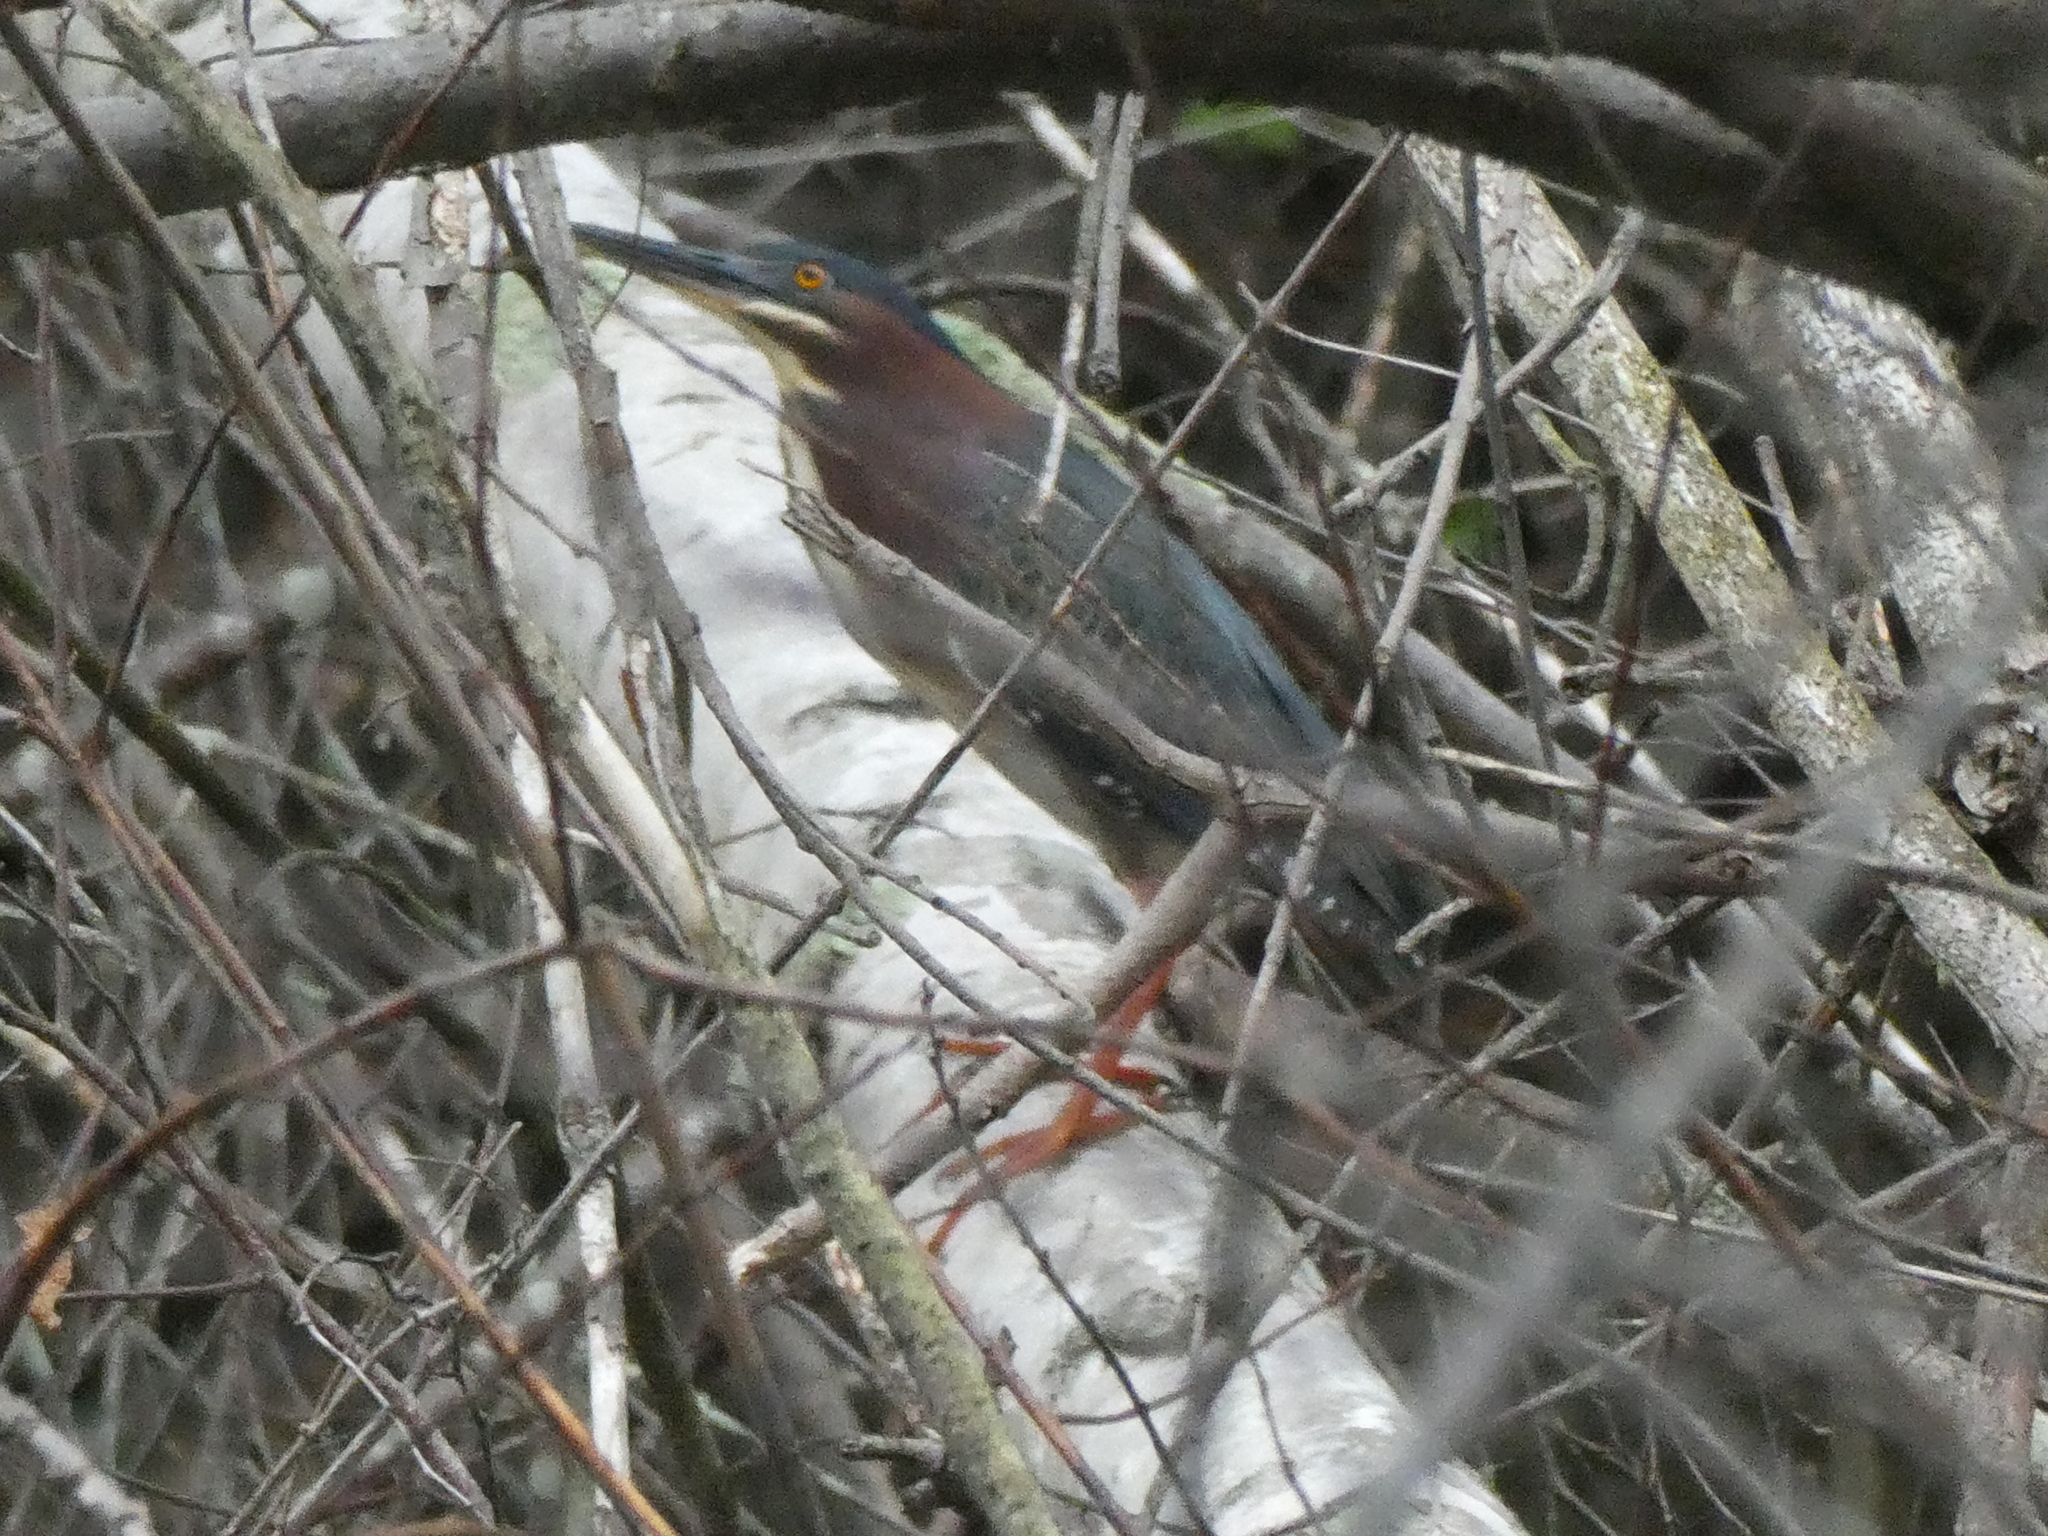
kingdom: Animalia
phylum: Chordata
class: Aves
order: Pelecaniformes
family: Ardeidae
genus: Butorides
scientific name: Butorides virescens
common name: Green heron
